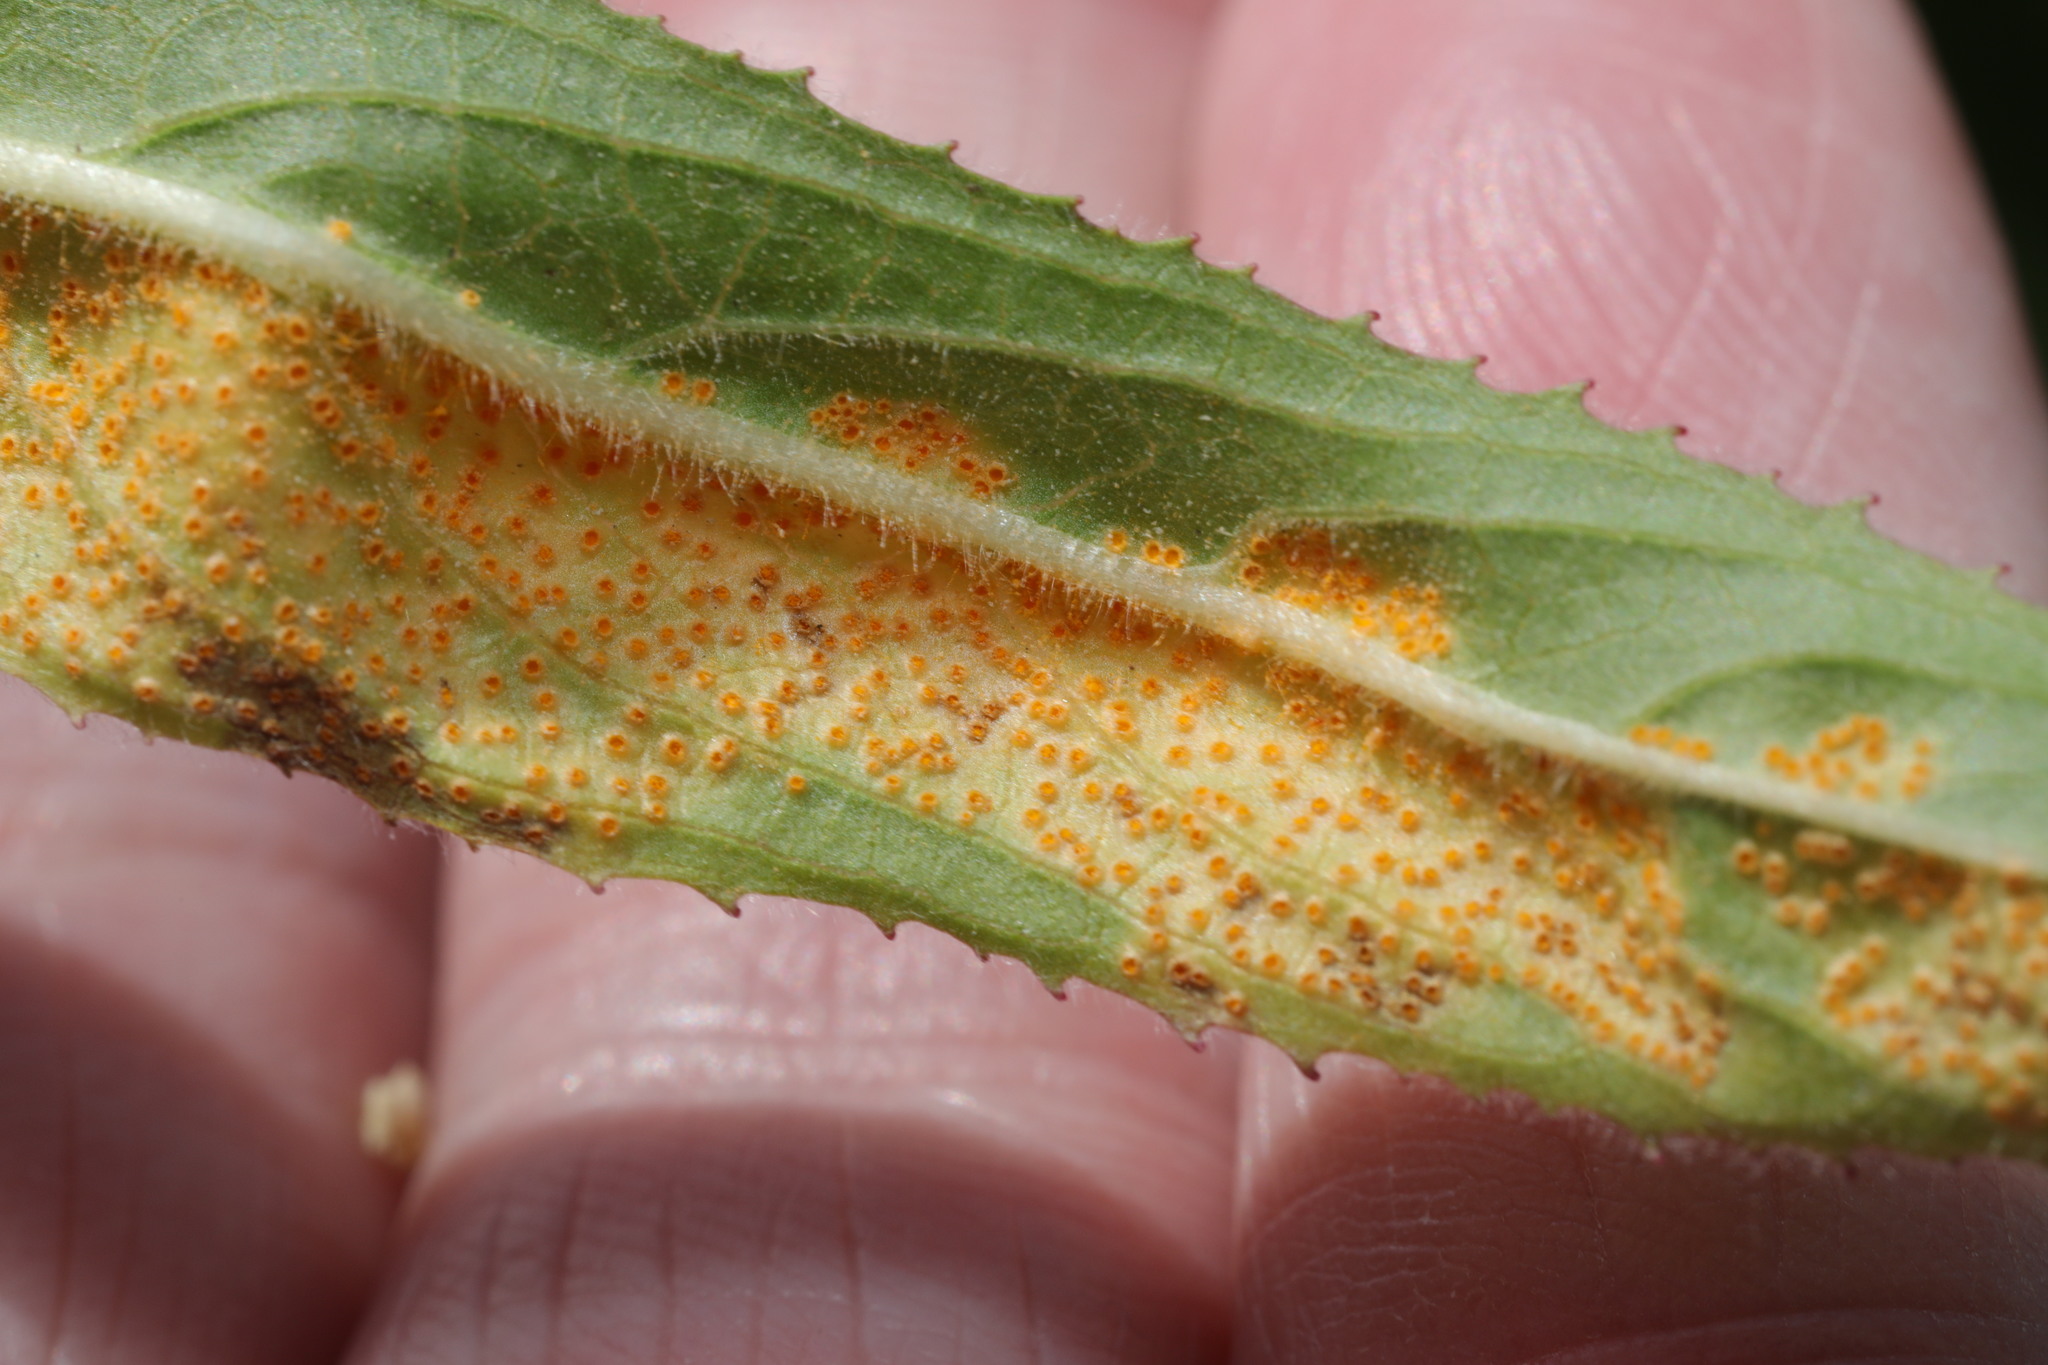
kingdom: Fungi
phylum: Basidiomycota
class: Pucciniomycetes
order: Pucciniales
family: Pucciniaceae
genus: Puccinia
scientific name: Puccinia pulverulenta
